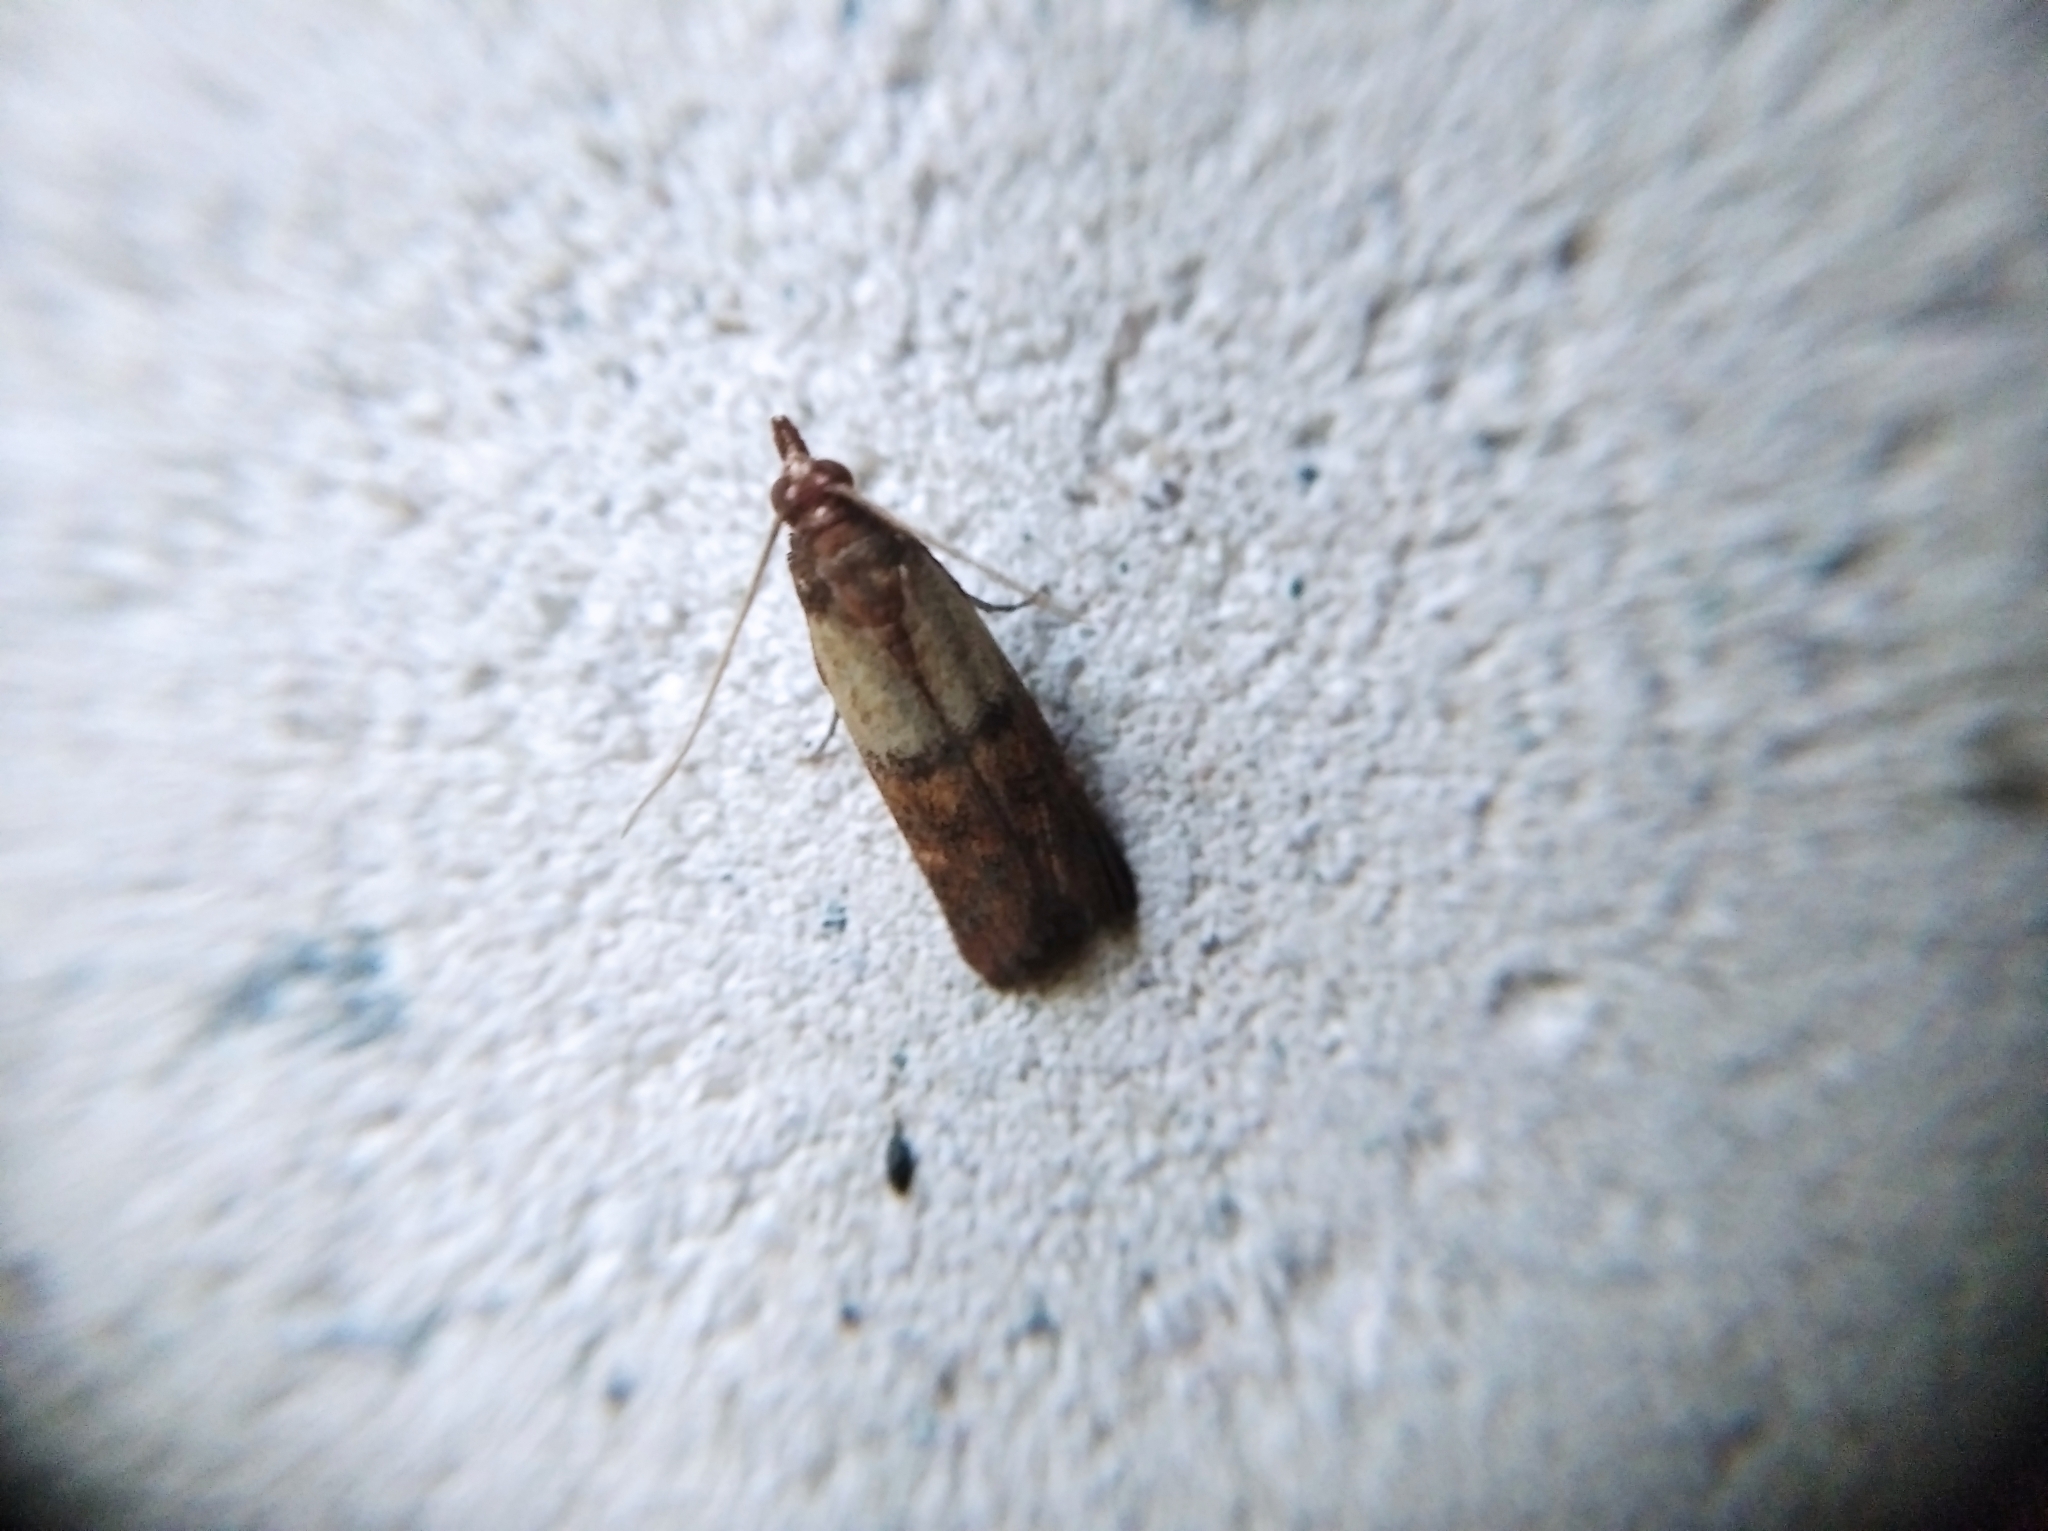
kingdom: Animalia
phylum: Arthropoda
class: Insecta
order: Lepidoptera
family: Pyralidae
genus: Plodia
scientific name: Plodia interpunctella
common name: Indian meal moth
